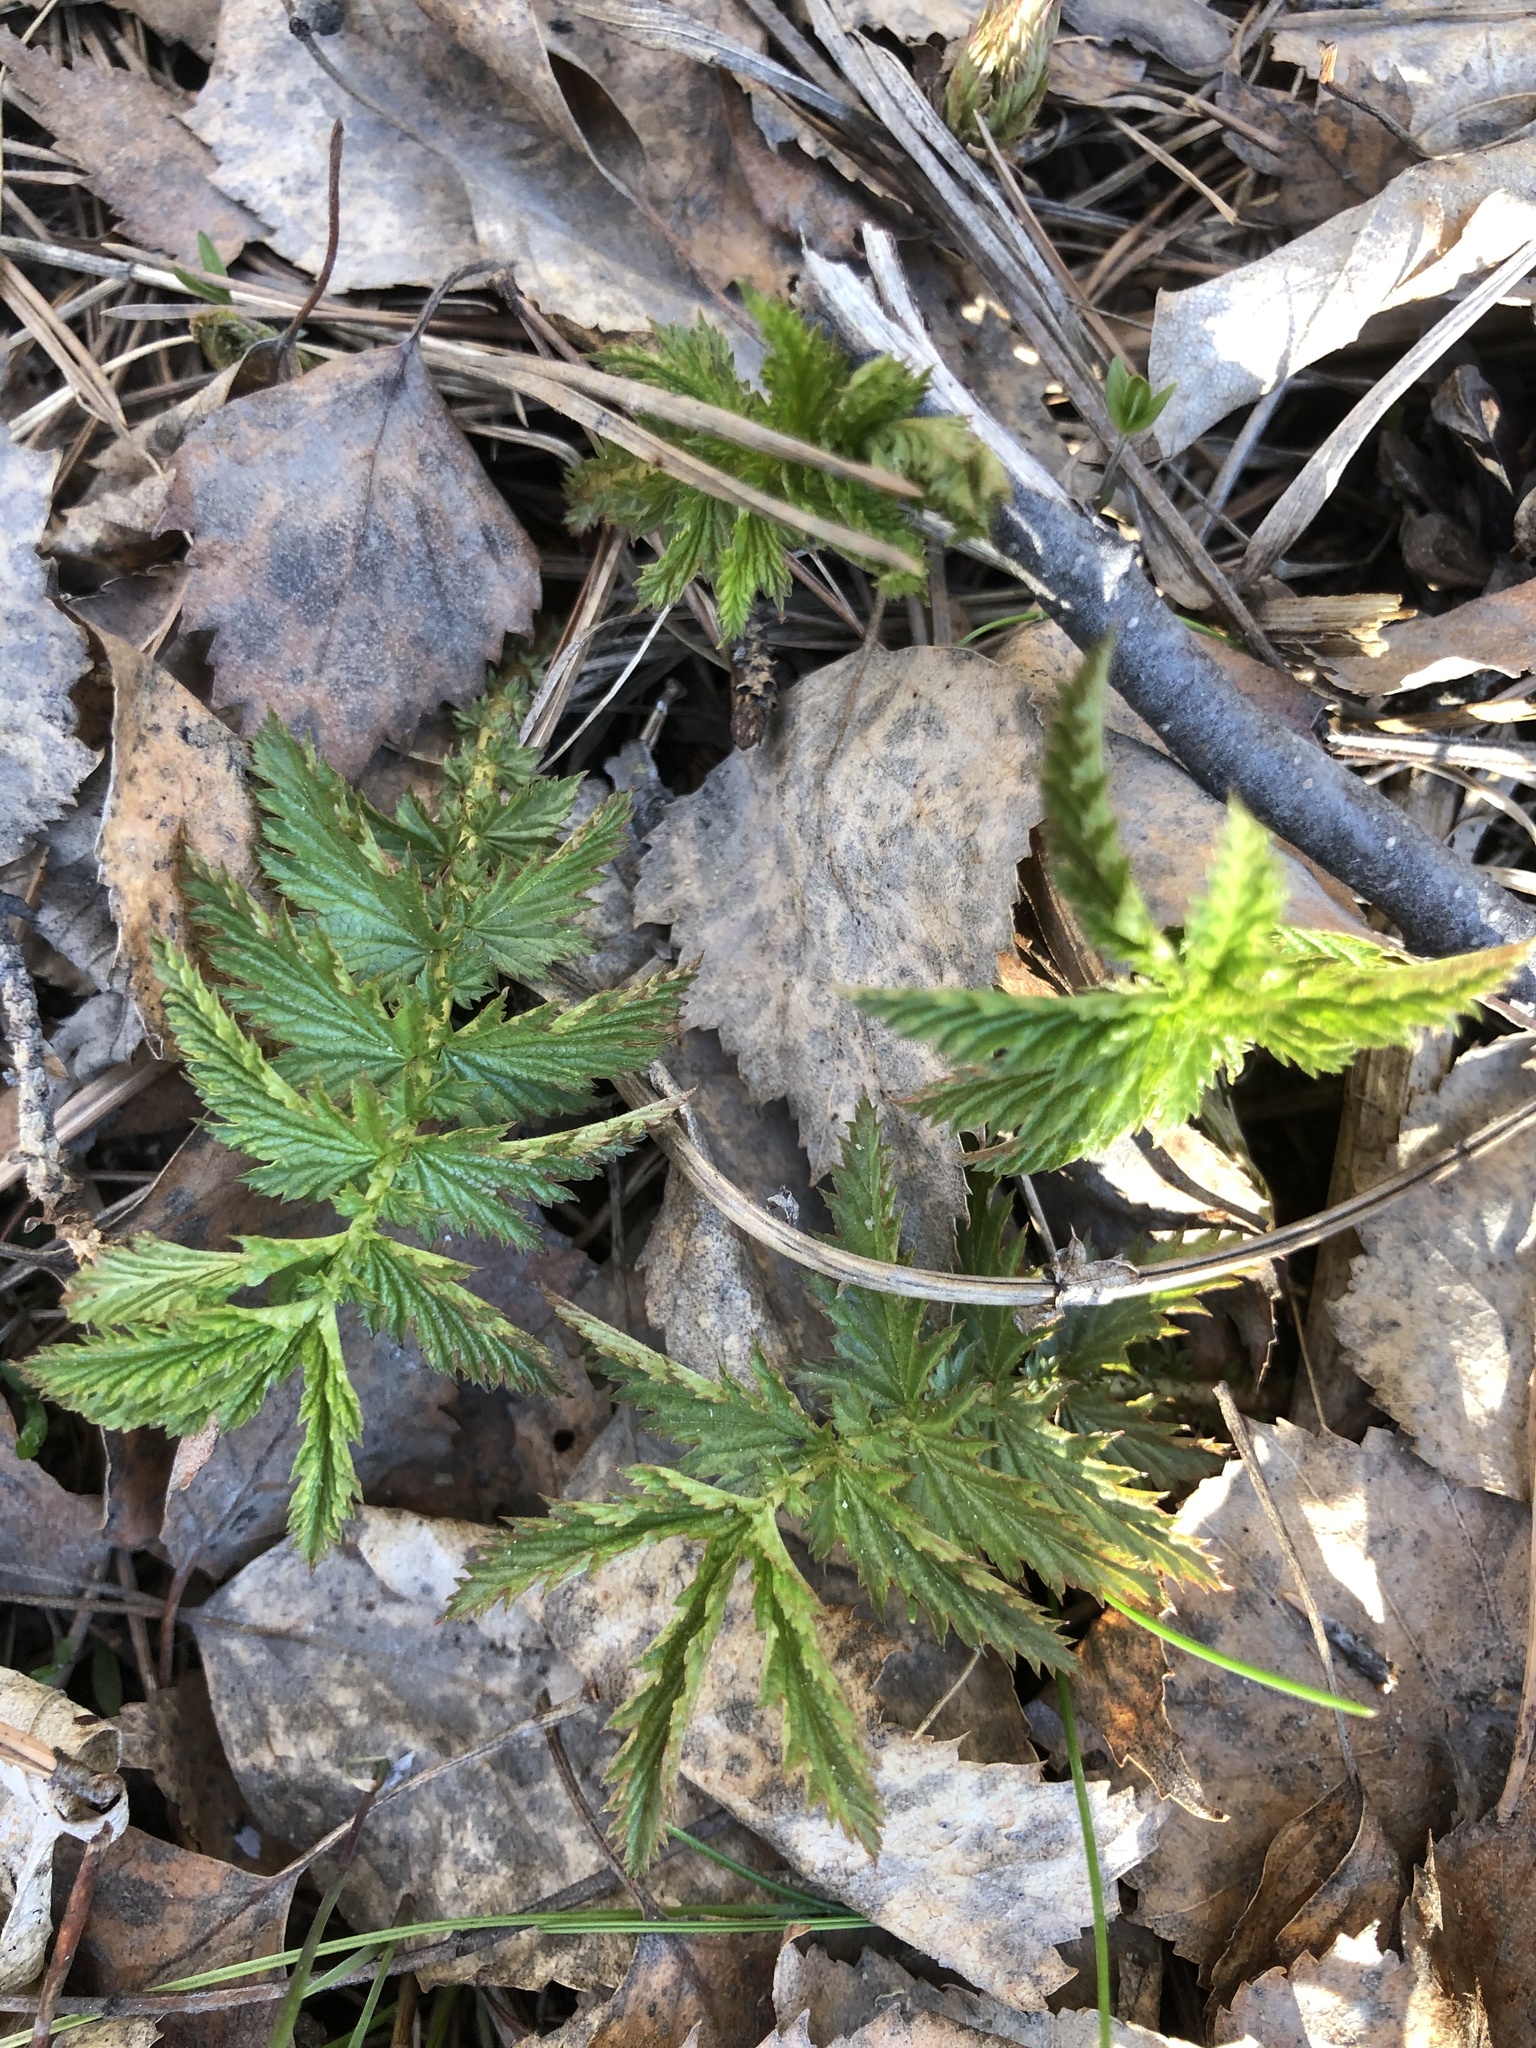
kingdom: Plantae
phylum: Tracheophyta
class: Magnoliopsida
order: Rosales
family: Rosaceae
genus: Filipendula
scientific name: Filipendula ulmaria
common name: Meadowsweet
